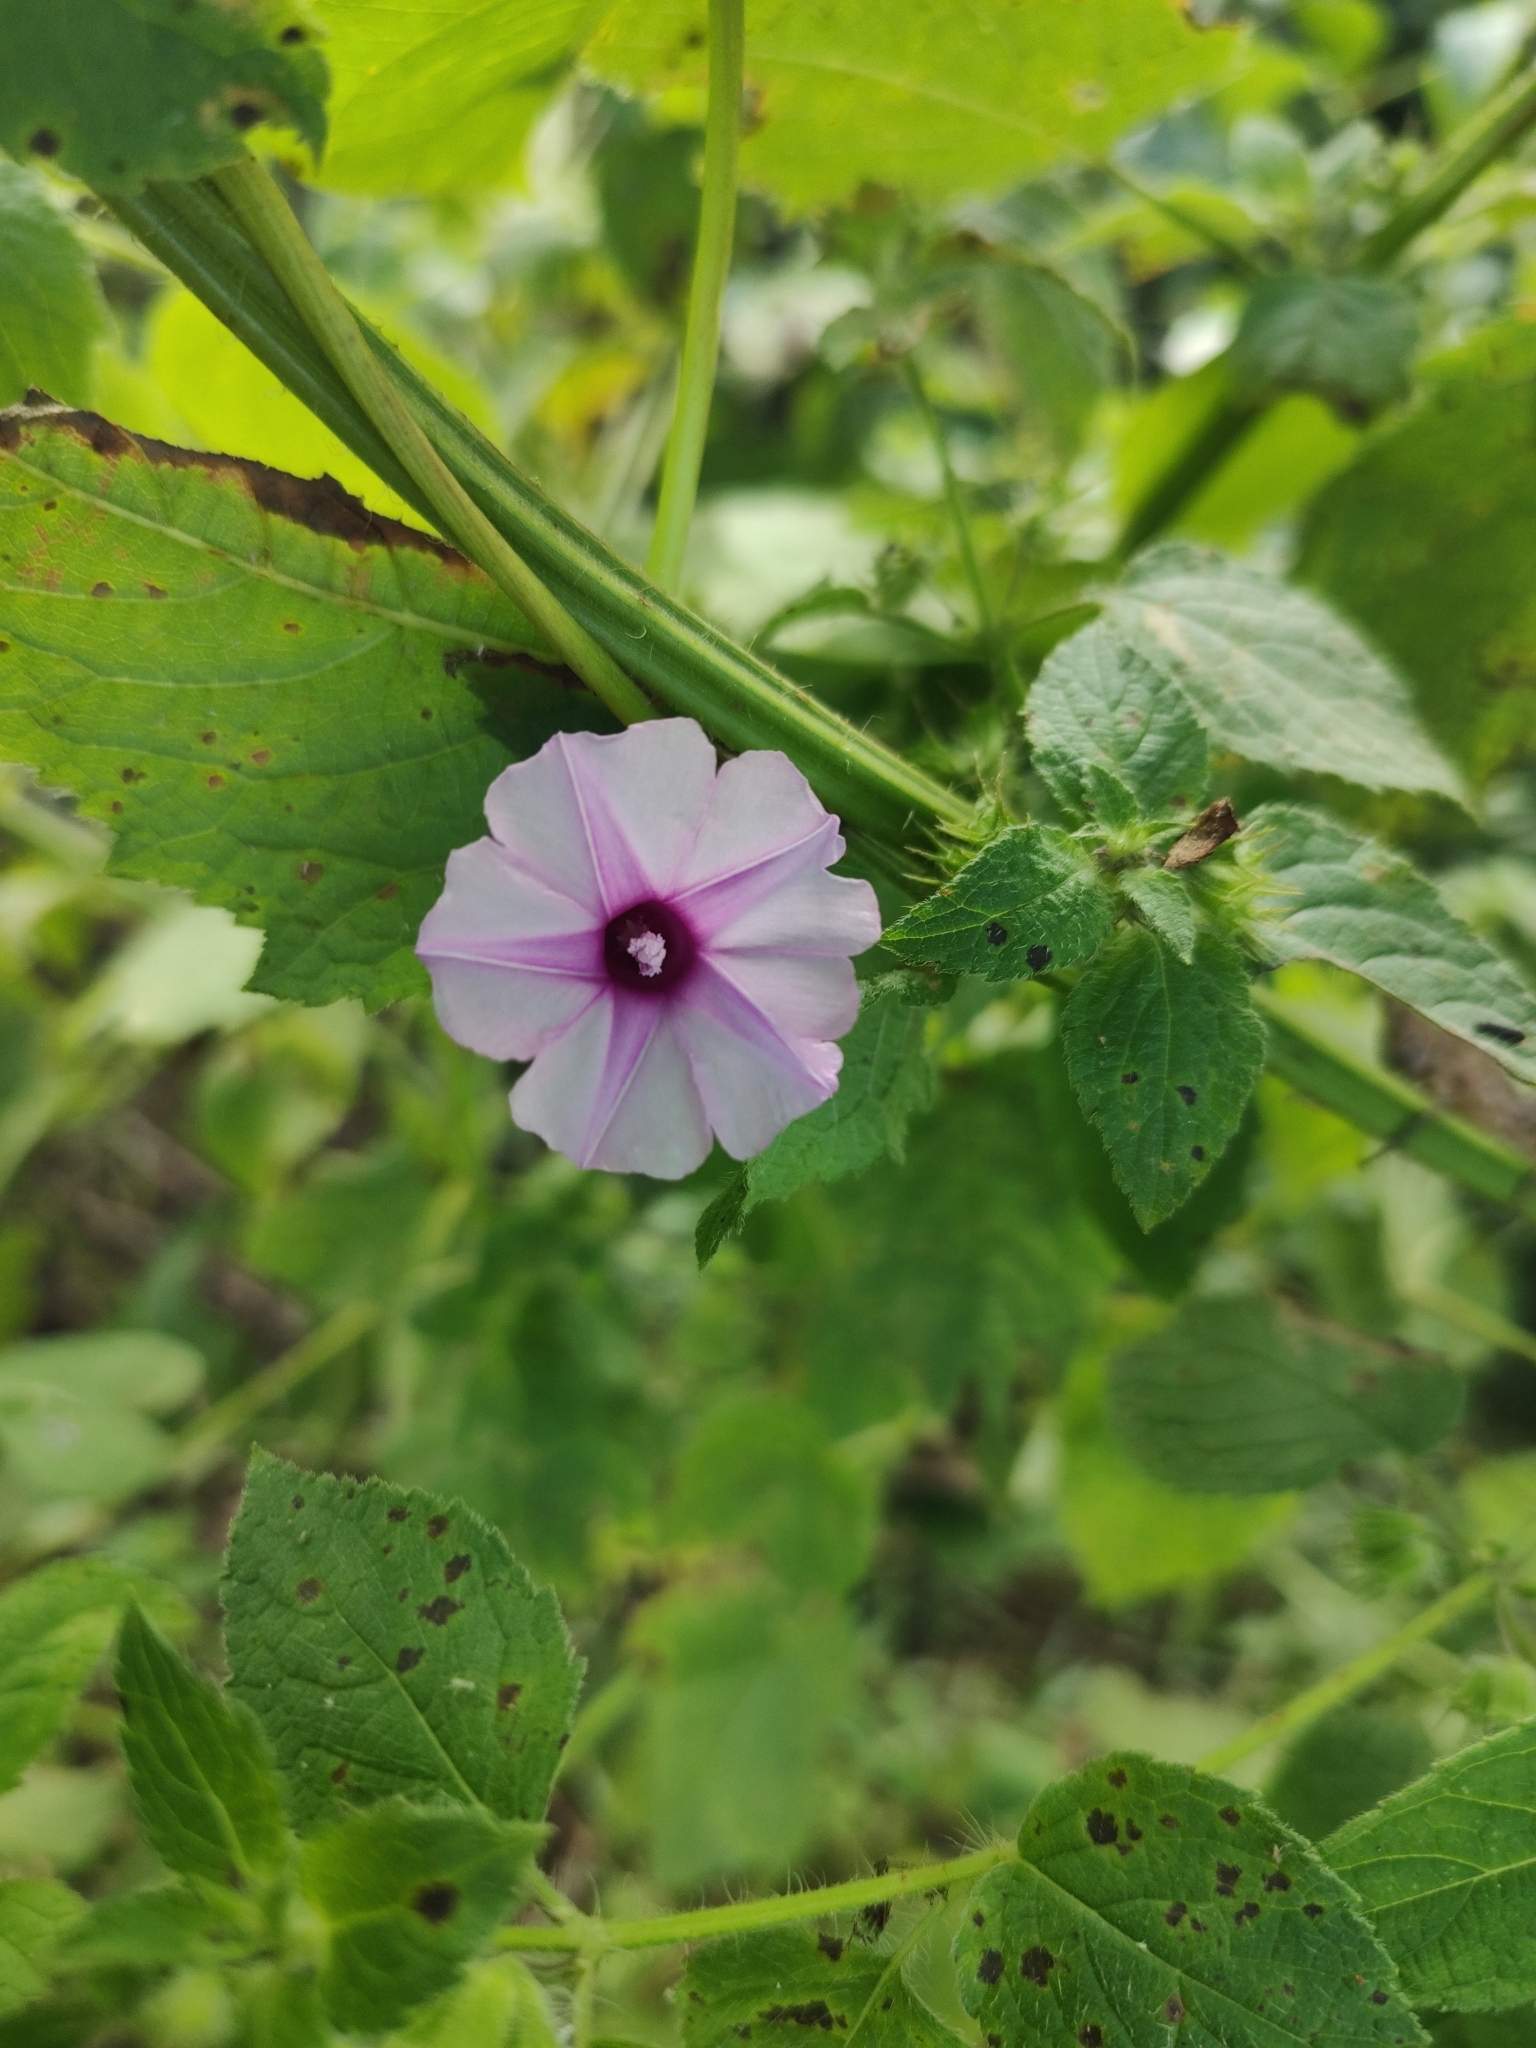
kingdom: Plantae
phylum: Tracheophyta
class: Magnoliopsida
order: Solanales
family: Convolvulaceae
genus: Ipomoea
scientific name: Ipomoea heptaphylla
